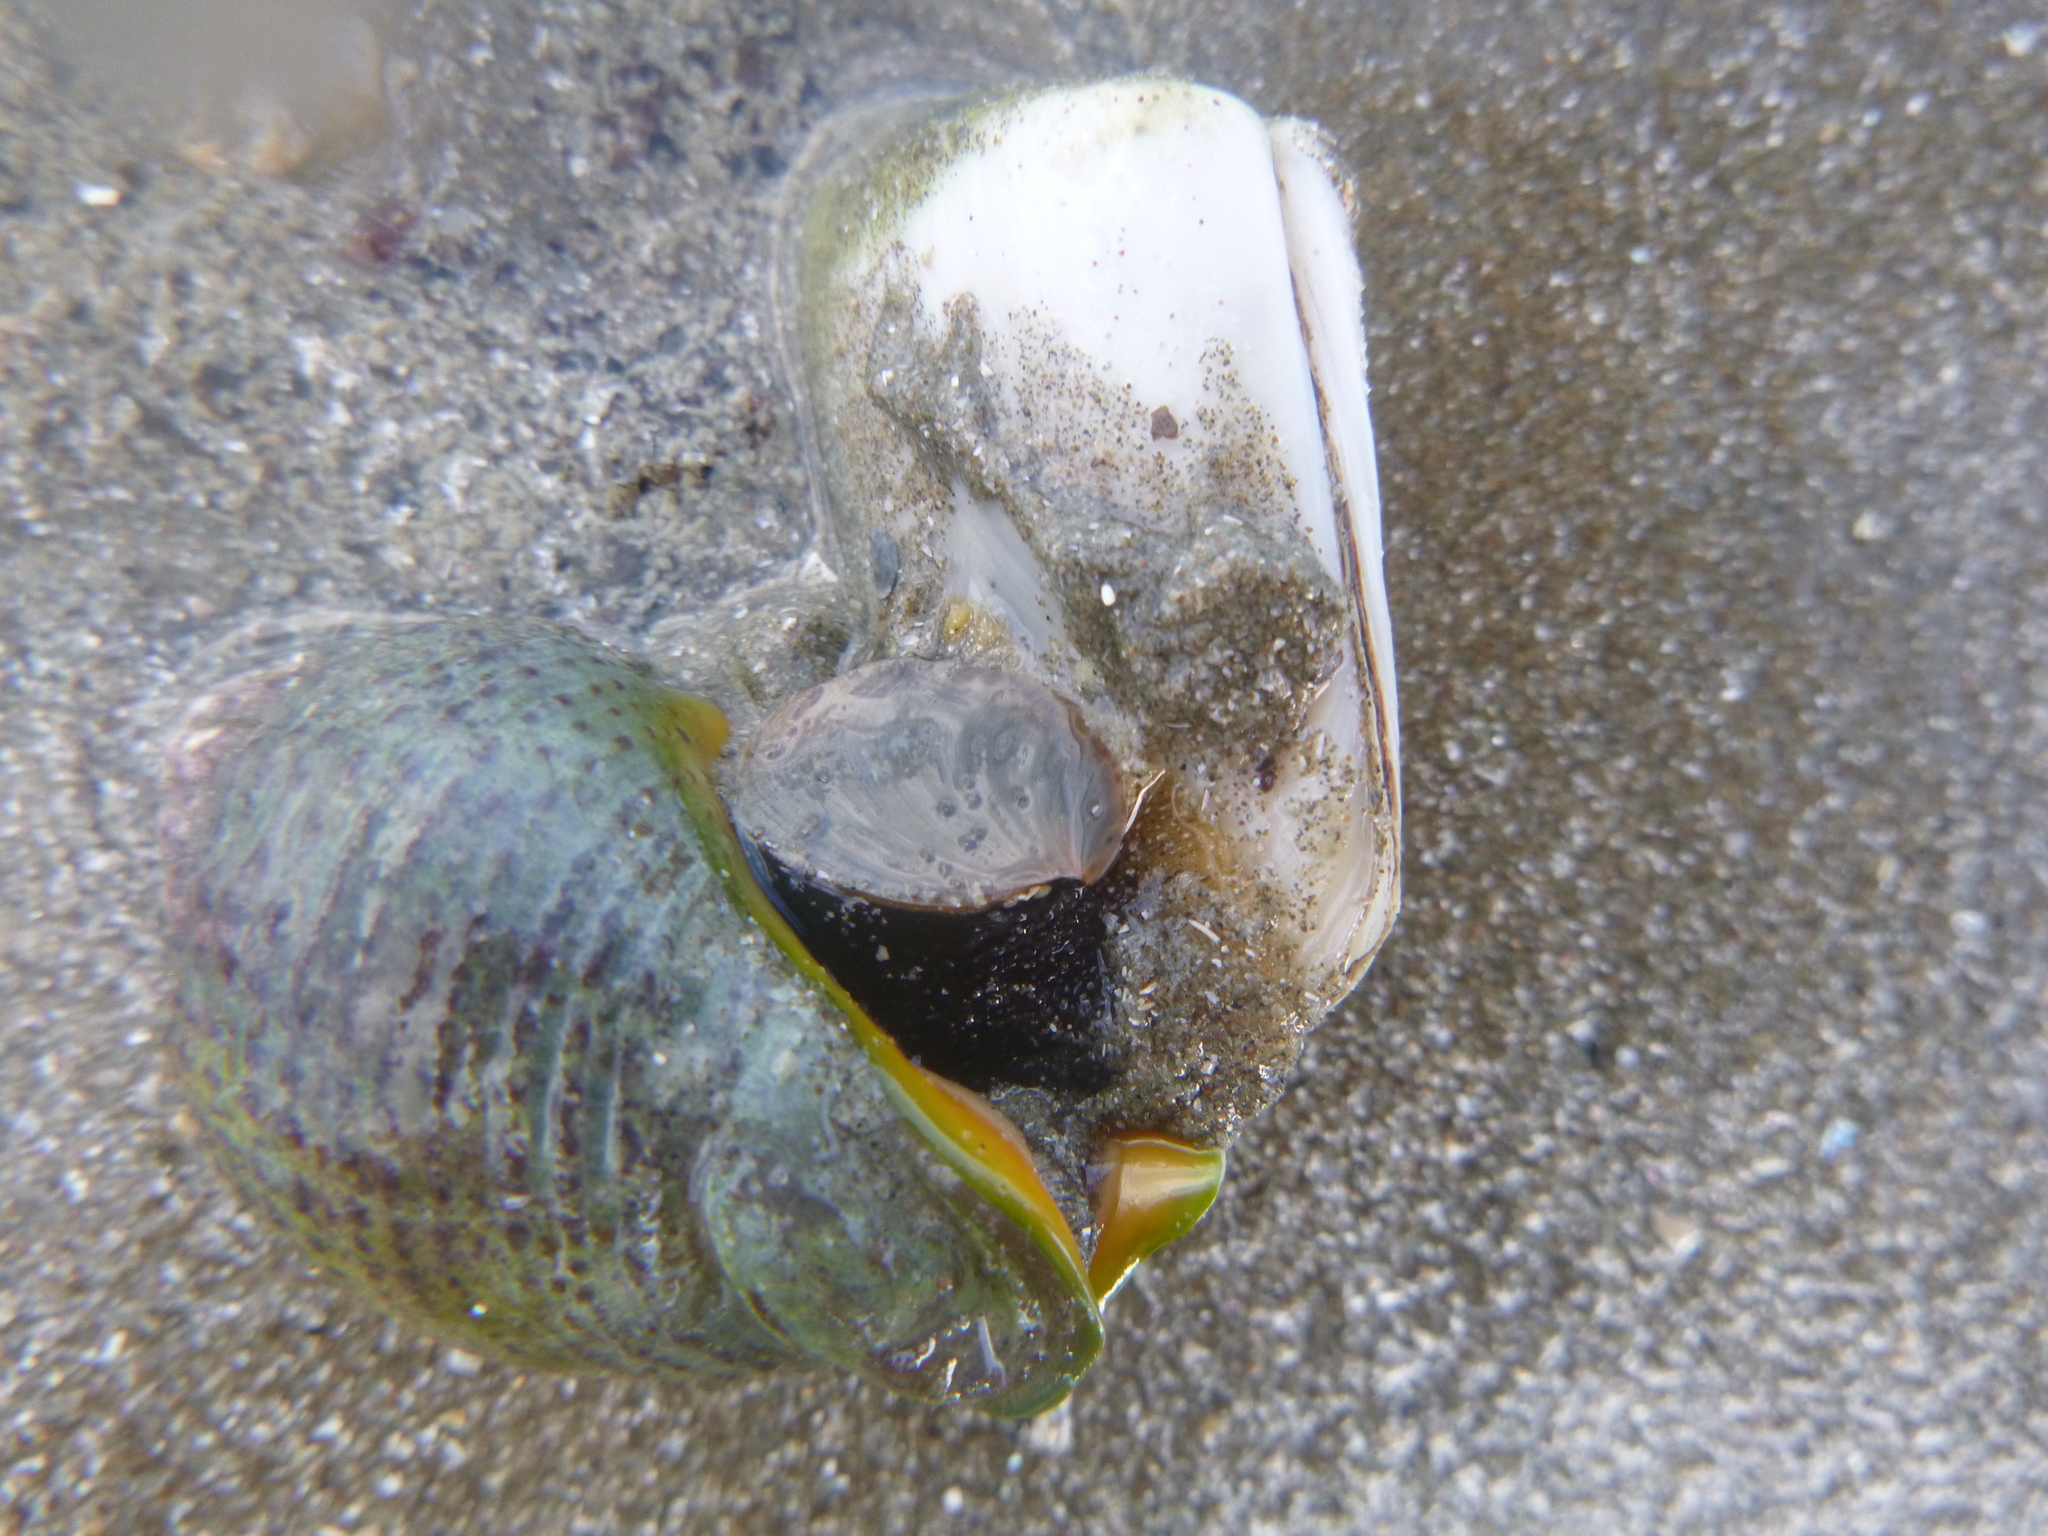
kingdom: Animalia
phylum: Mollusca
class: Bivalvia
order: Venerida
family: Mesodesmatidae
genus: Paphies
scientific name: Paphies subtriangulata
